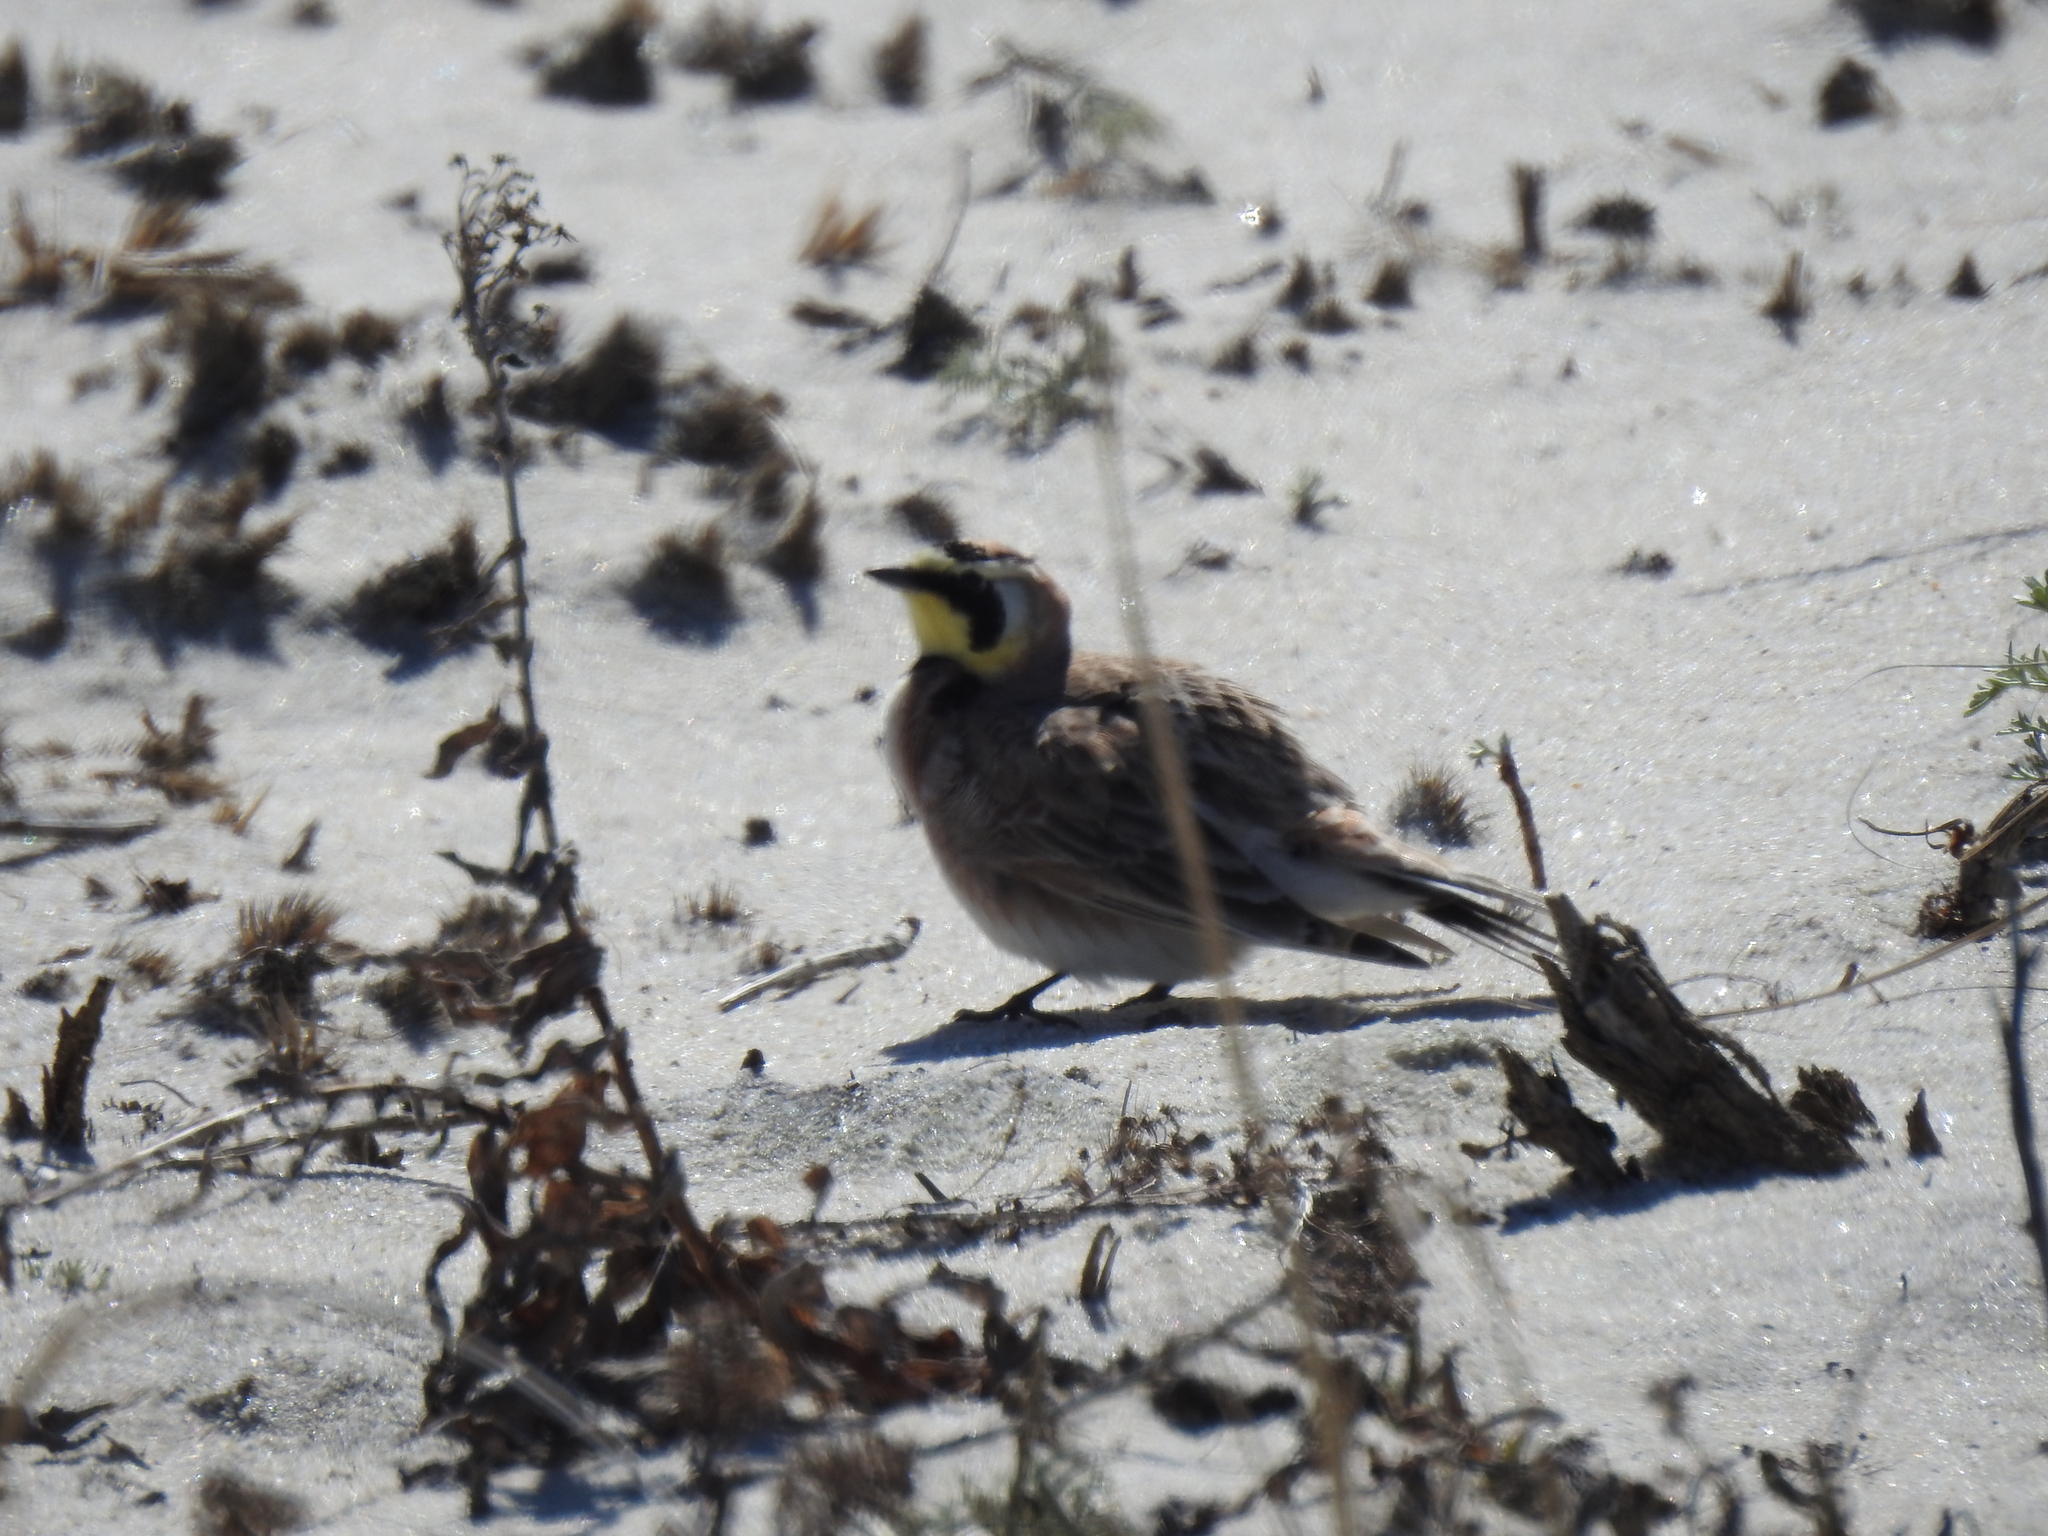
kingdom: Animalia
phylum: Chordata
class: Aves
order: Passeriformes
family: Alaudidae
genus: Eremophila
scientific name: Eremophila alpestris
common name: Horned lark
